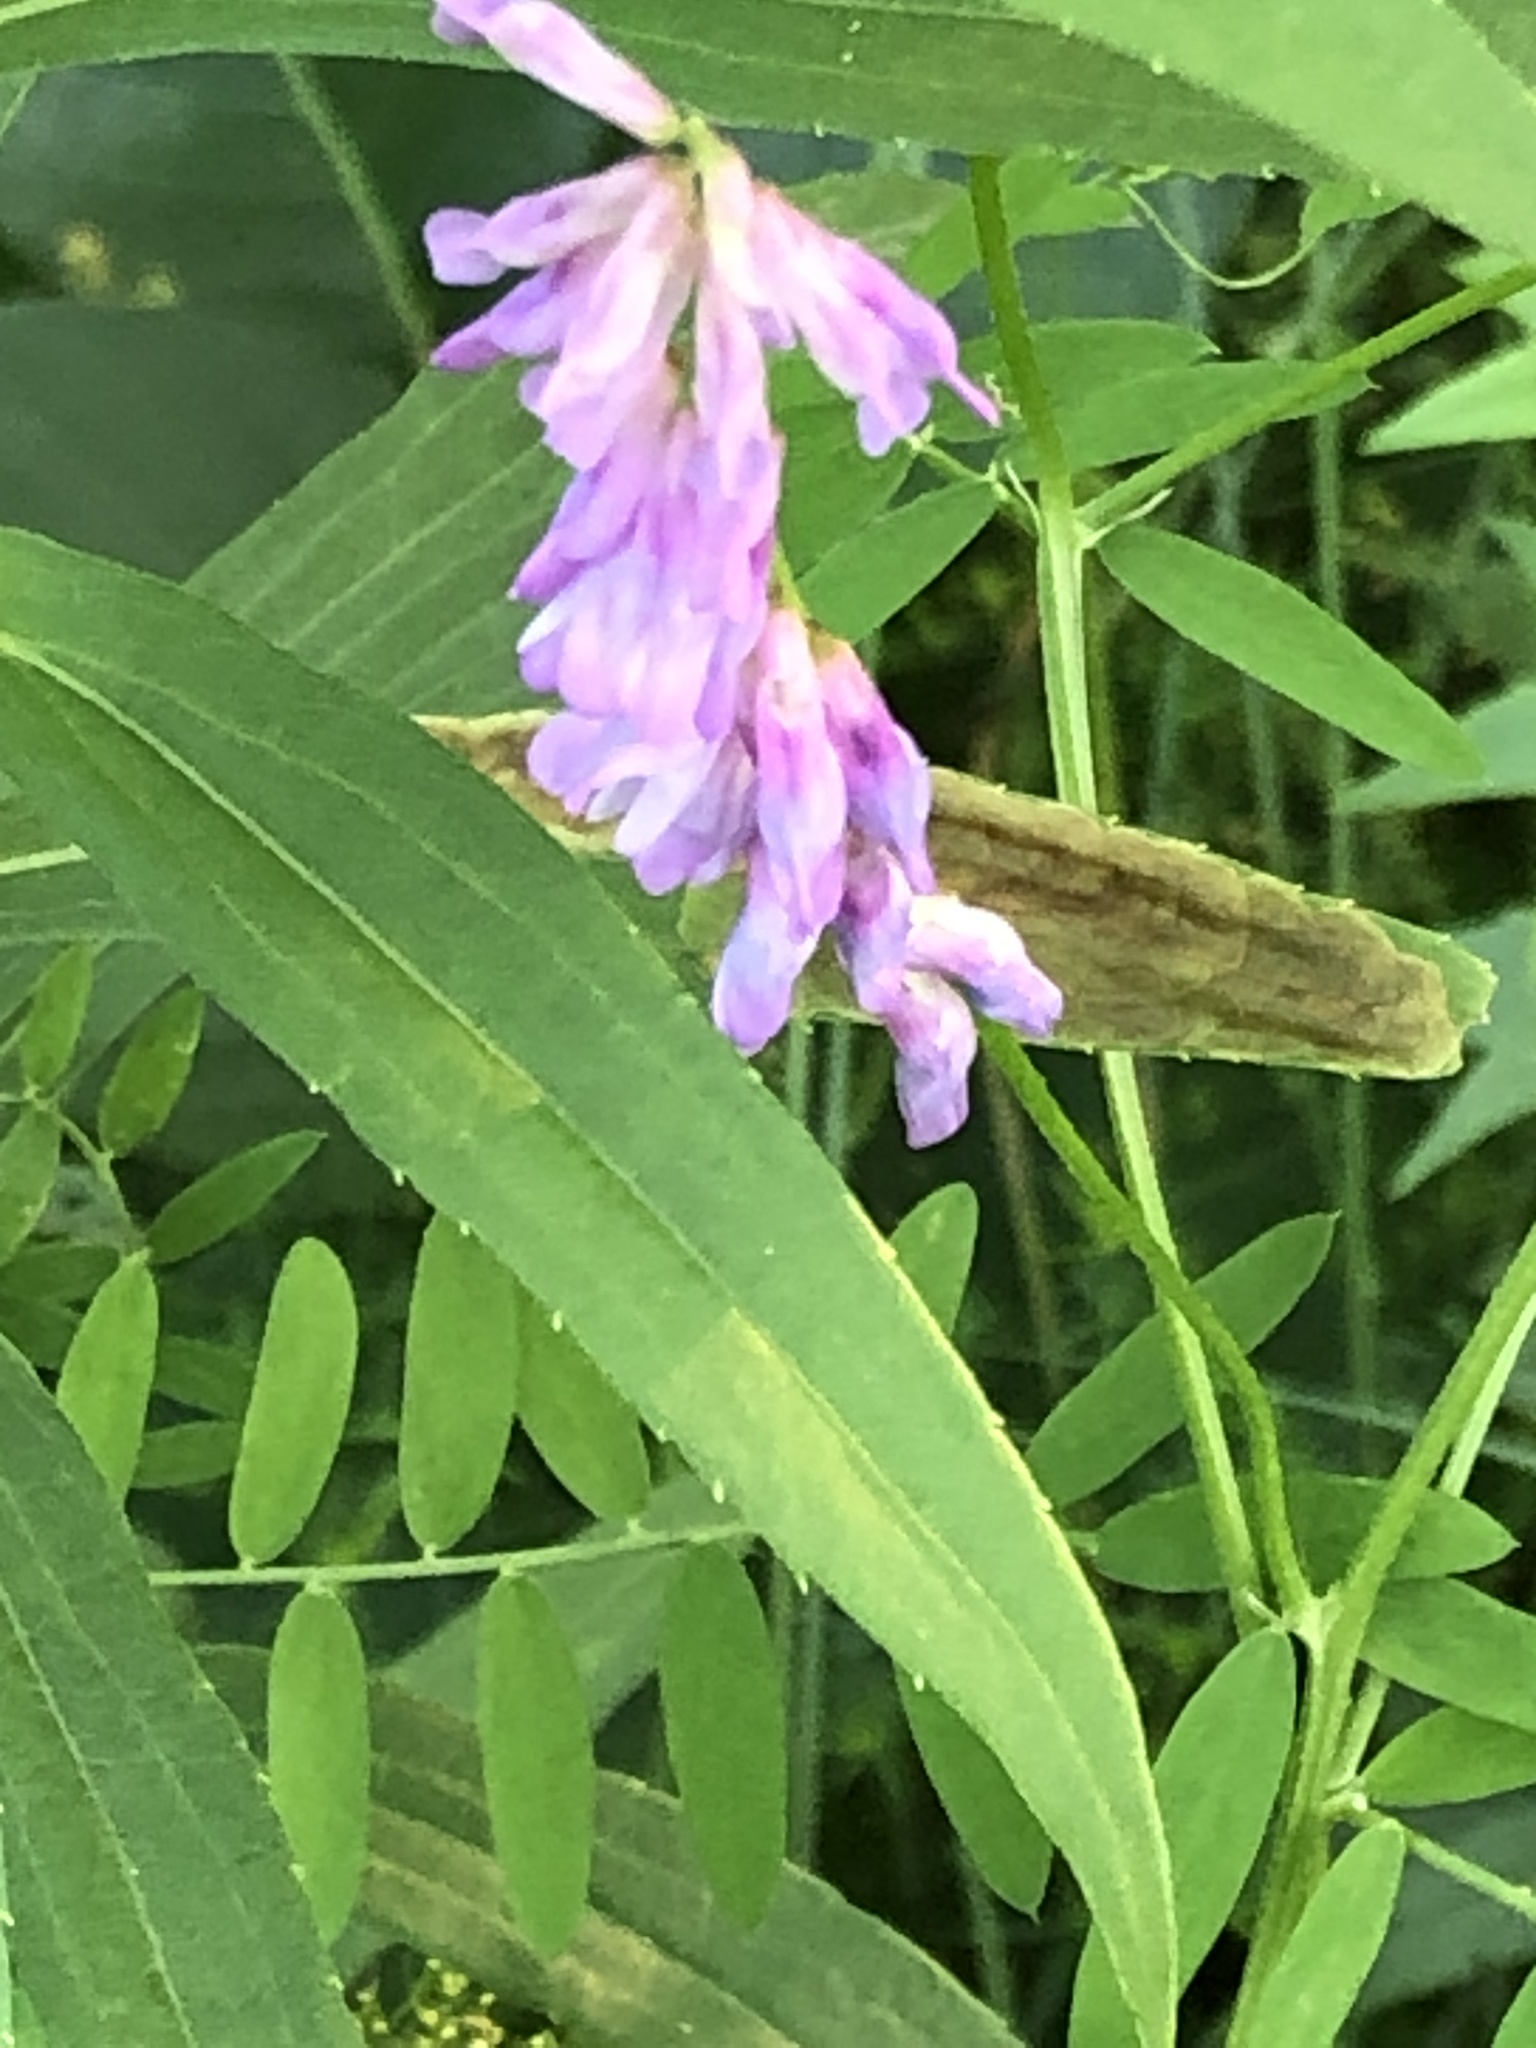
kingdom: Plantae
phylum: Tracheophyta
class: Magnoliopsida
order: Fabales
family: Fabaceae
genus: Vicia
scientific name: Vicia cracca
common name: Bird vetch
